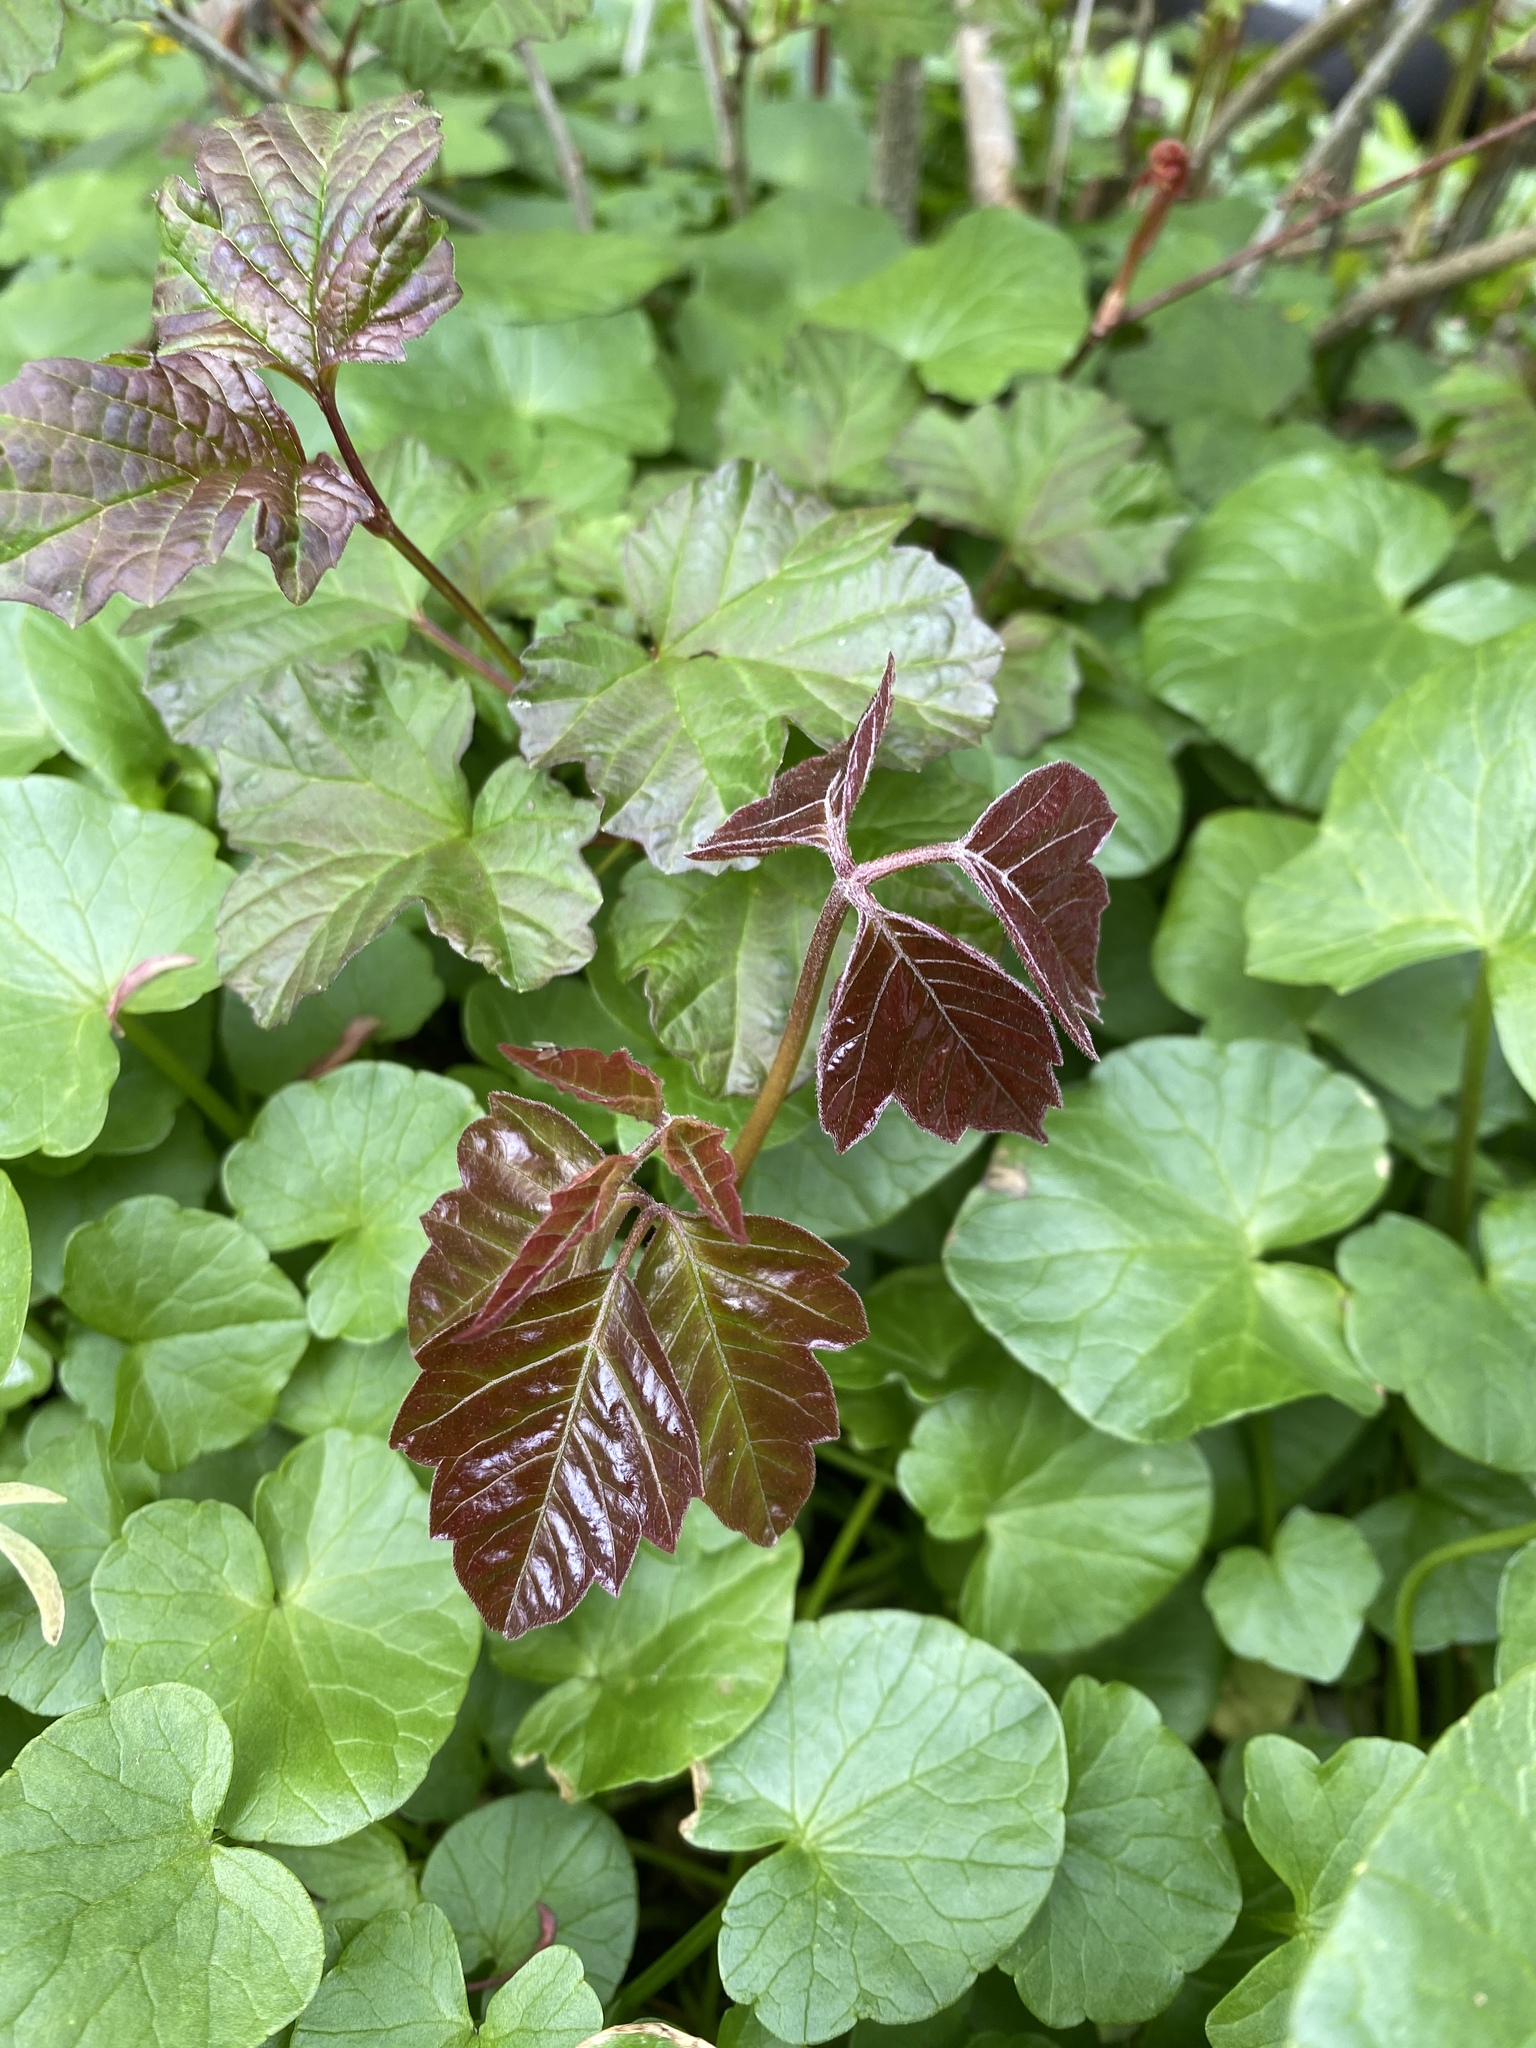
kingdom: Plantae
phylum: Tracheophyta
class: Magnoliopsida
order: Sapindales
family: Anacardiaceae
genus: Toxicodendron
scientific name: Toxicodendron radicans
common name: Poison ivy
